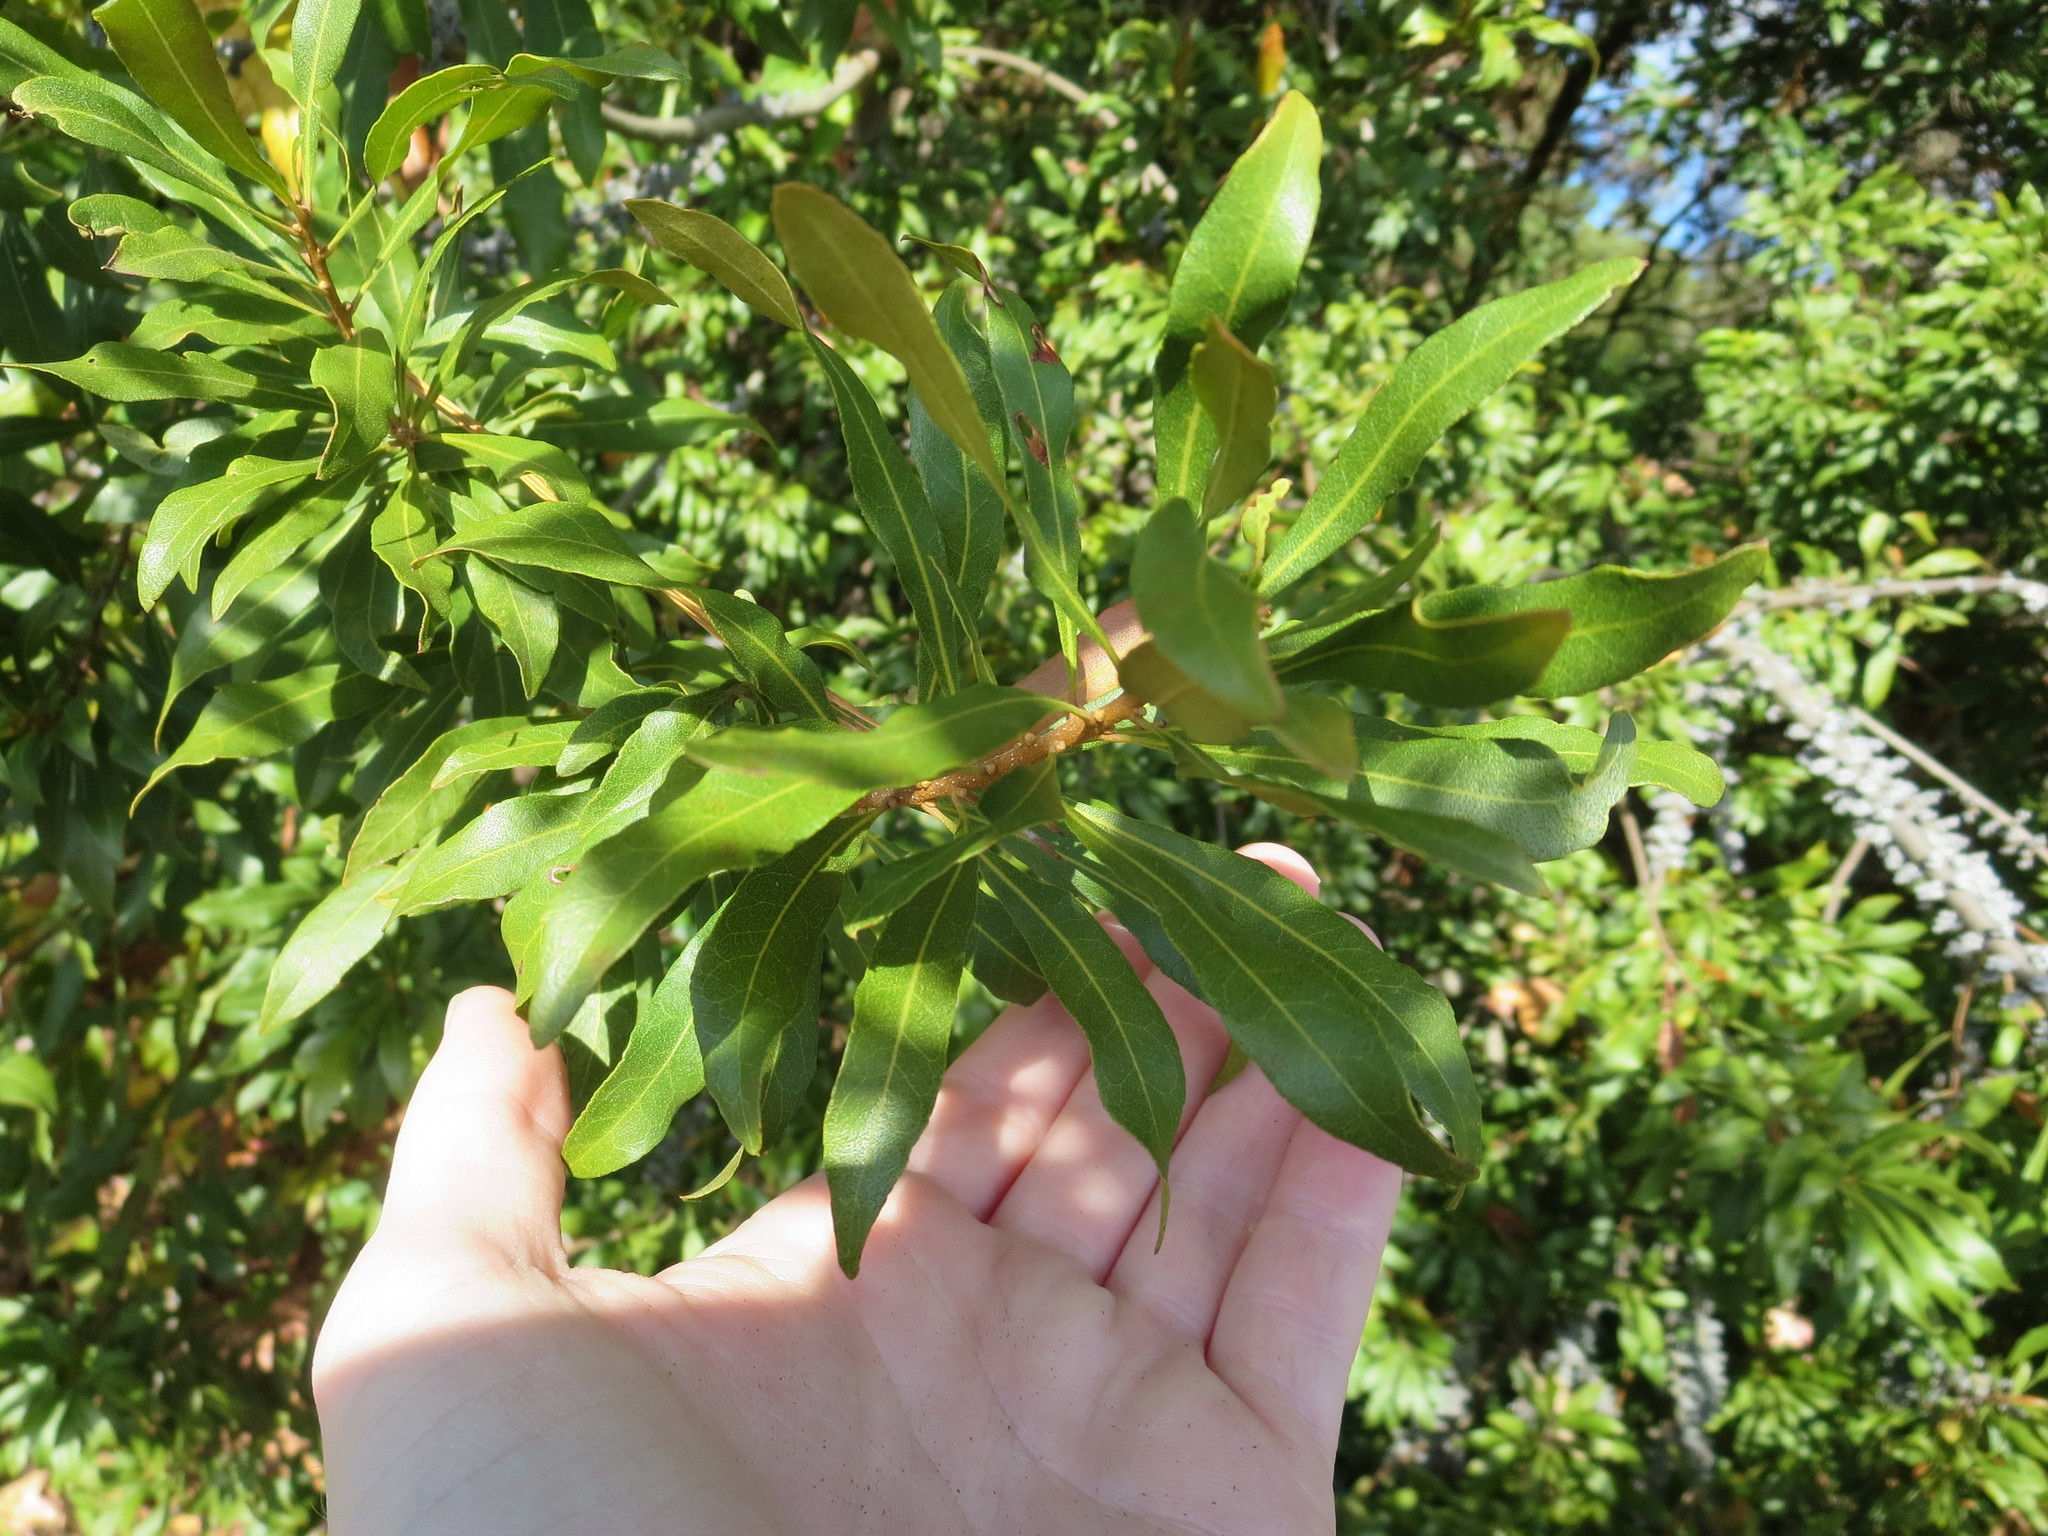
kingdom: Plantae
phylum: Tracheophyta
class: Magnoliopsida
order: Fagales
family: Myricaceae
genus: Morella
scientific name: Morella cerifera
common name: Wax myrtle
